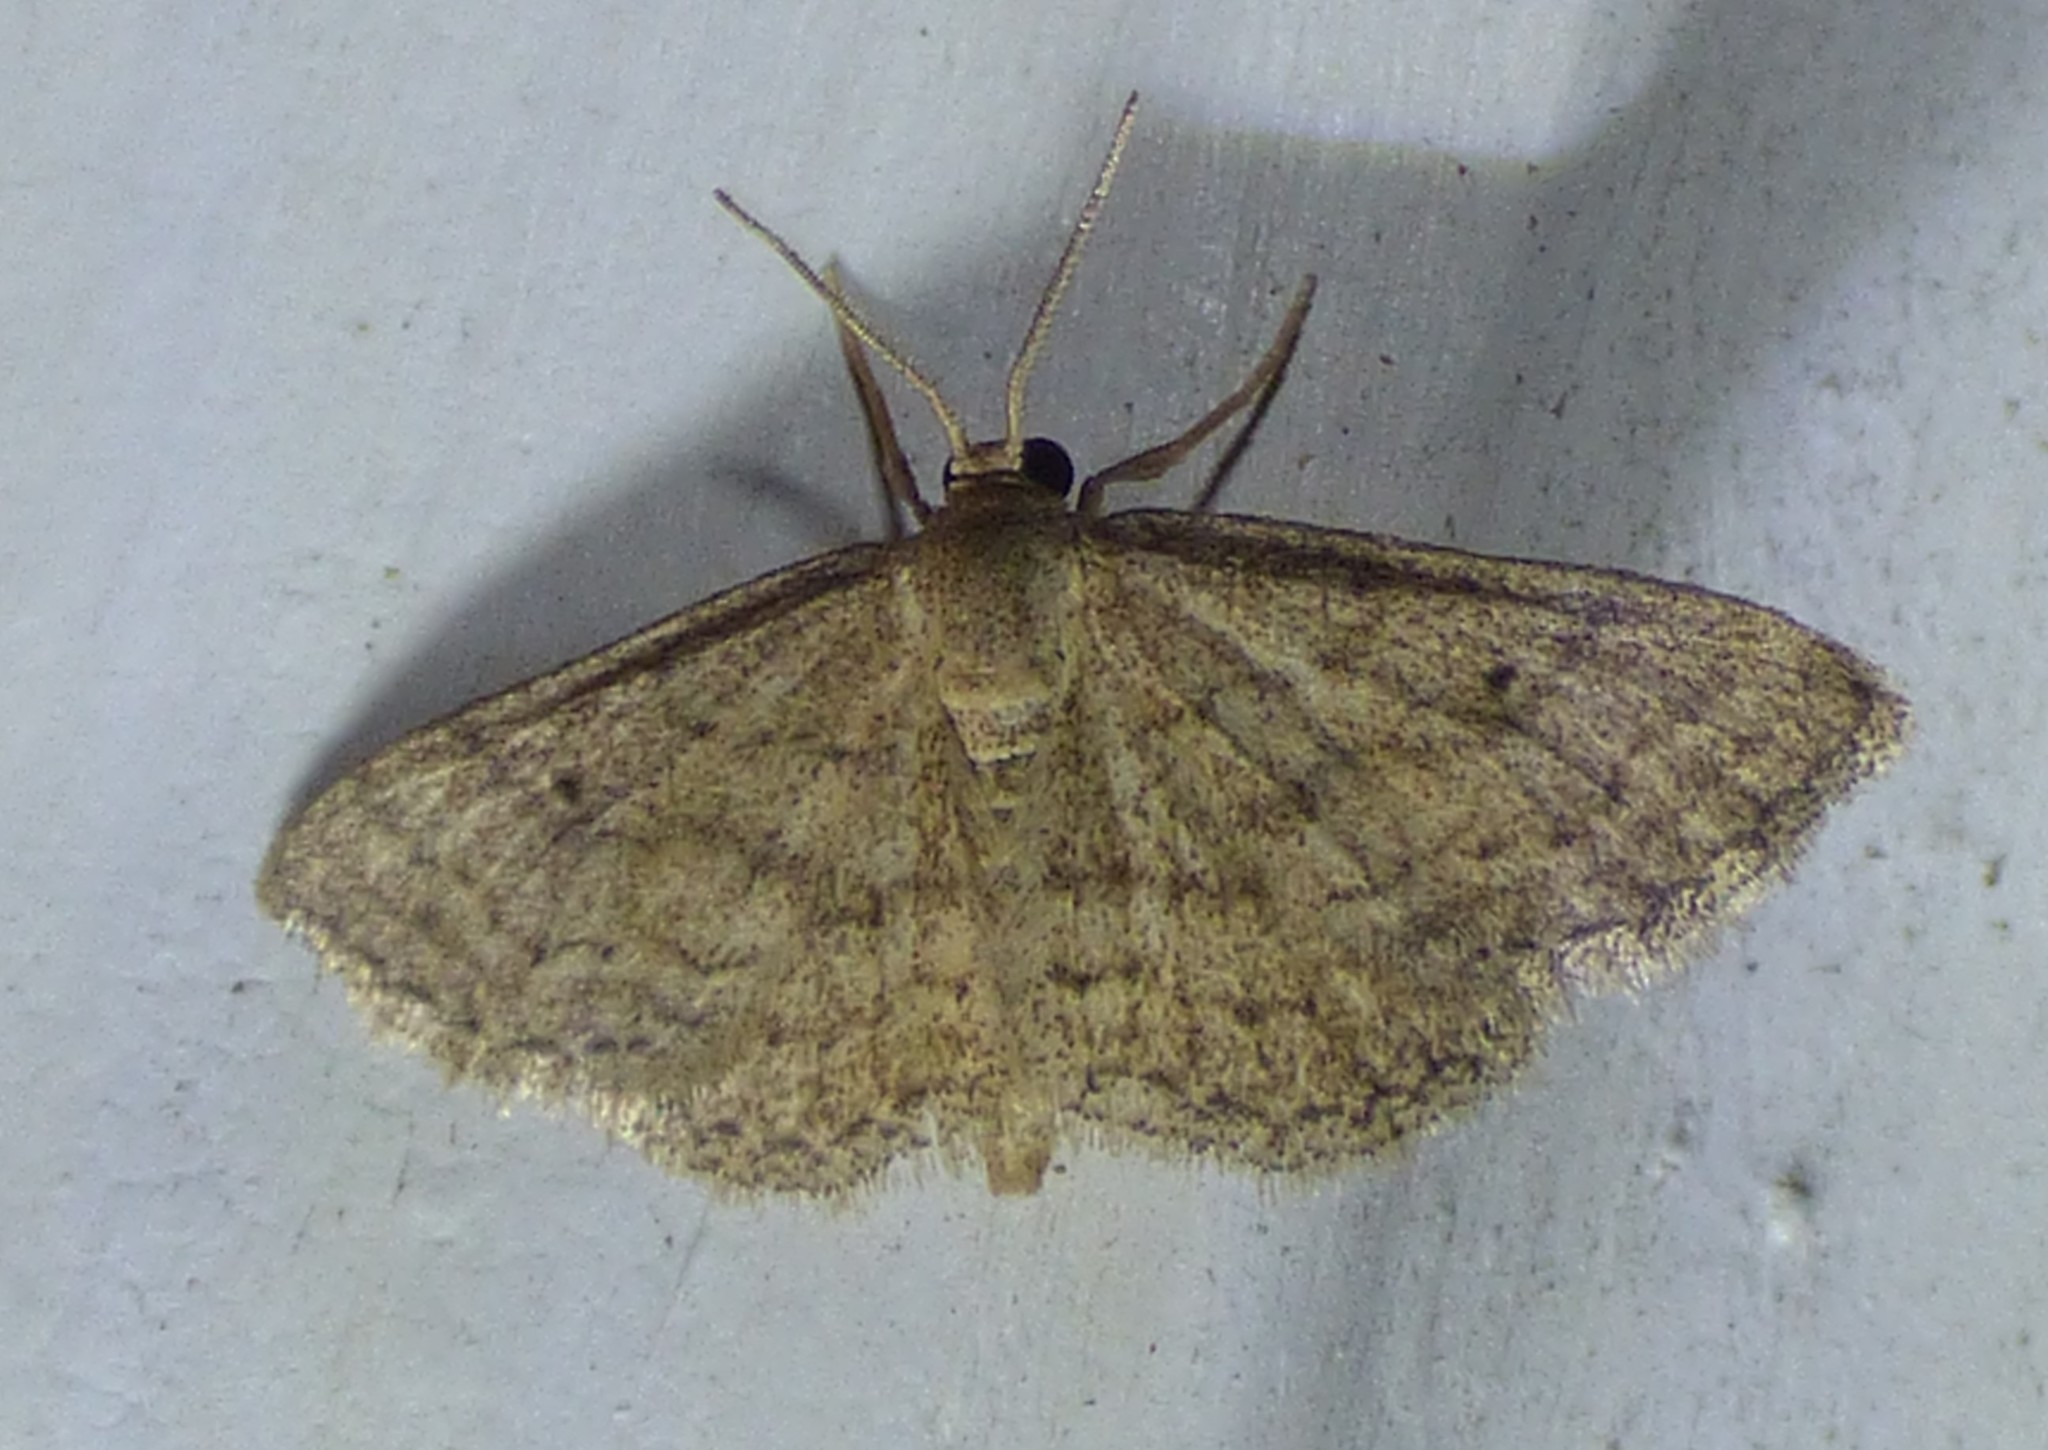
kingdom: Animalia
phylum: Arthropoda
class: Insecta
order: Lepidoptera
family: Geometridae
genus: Lobocleta
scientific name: Lobocleta ossularia
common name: Drab brown wave
